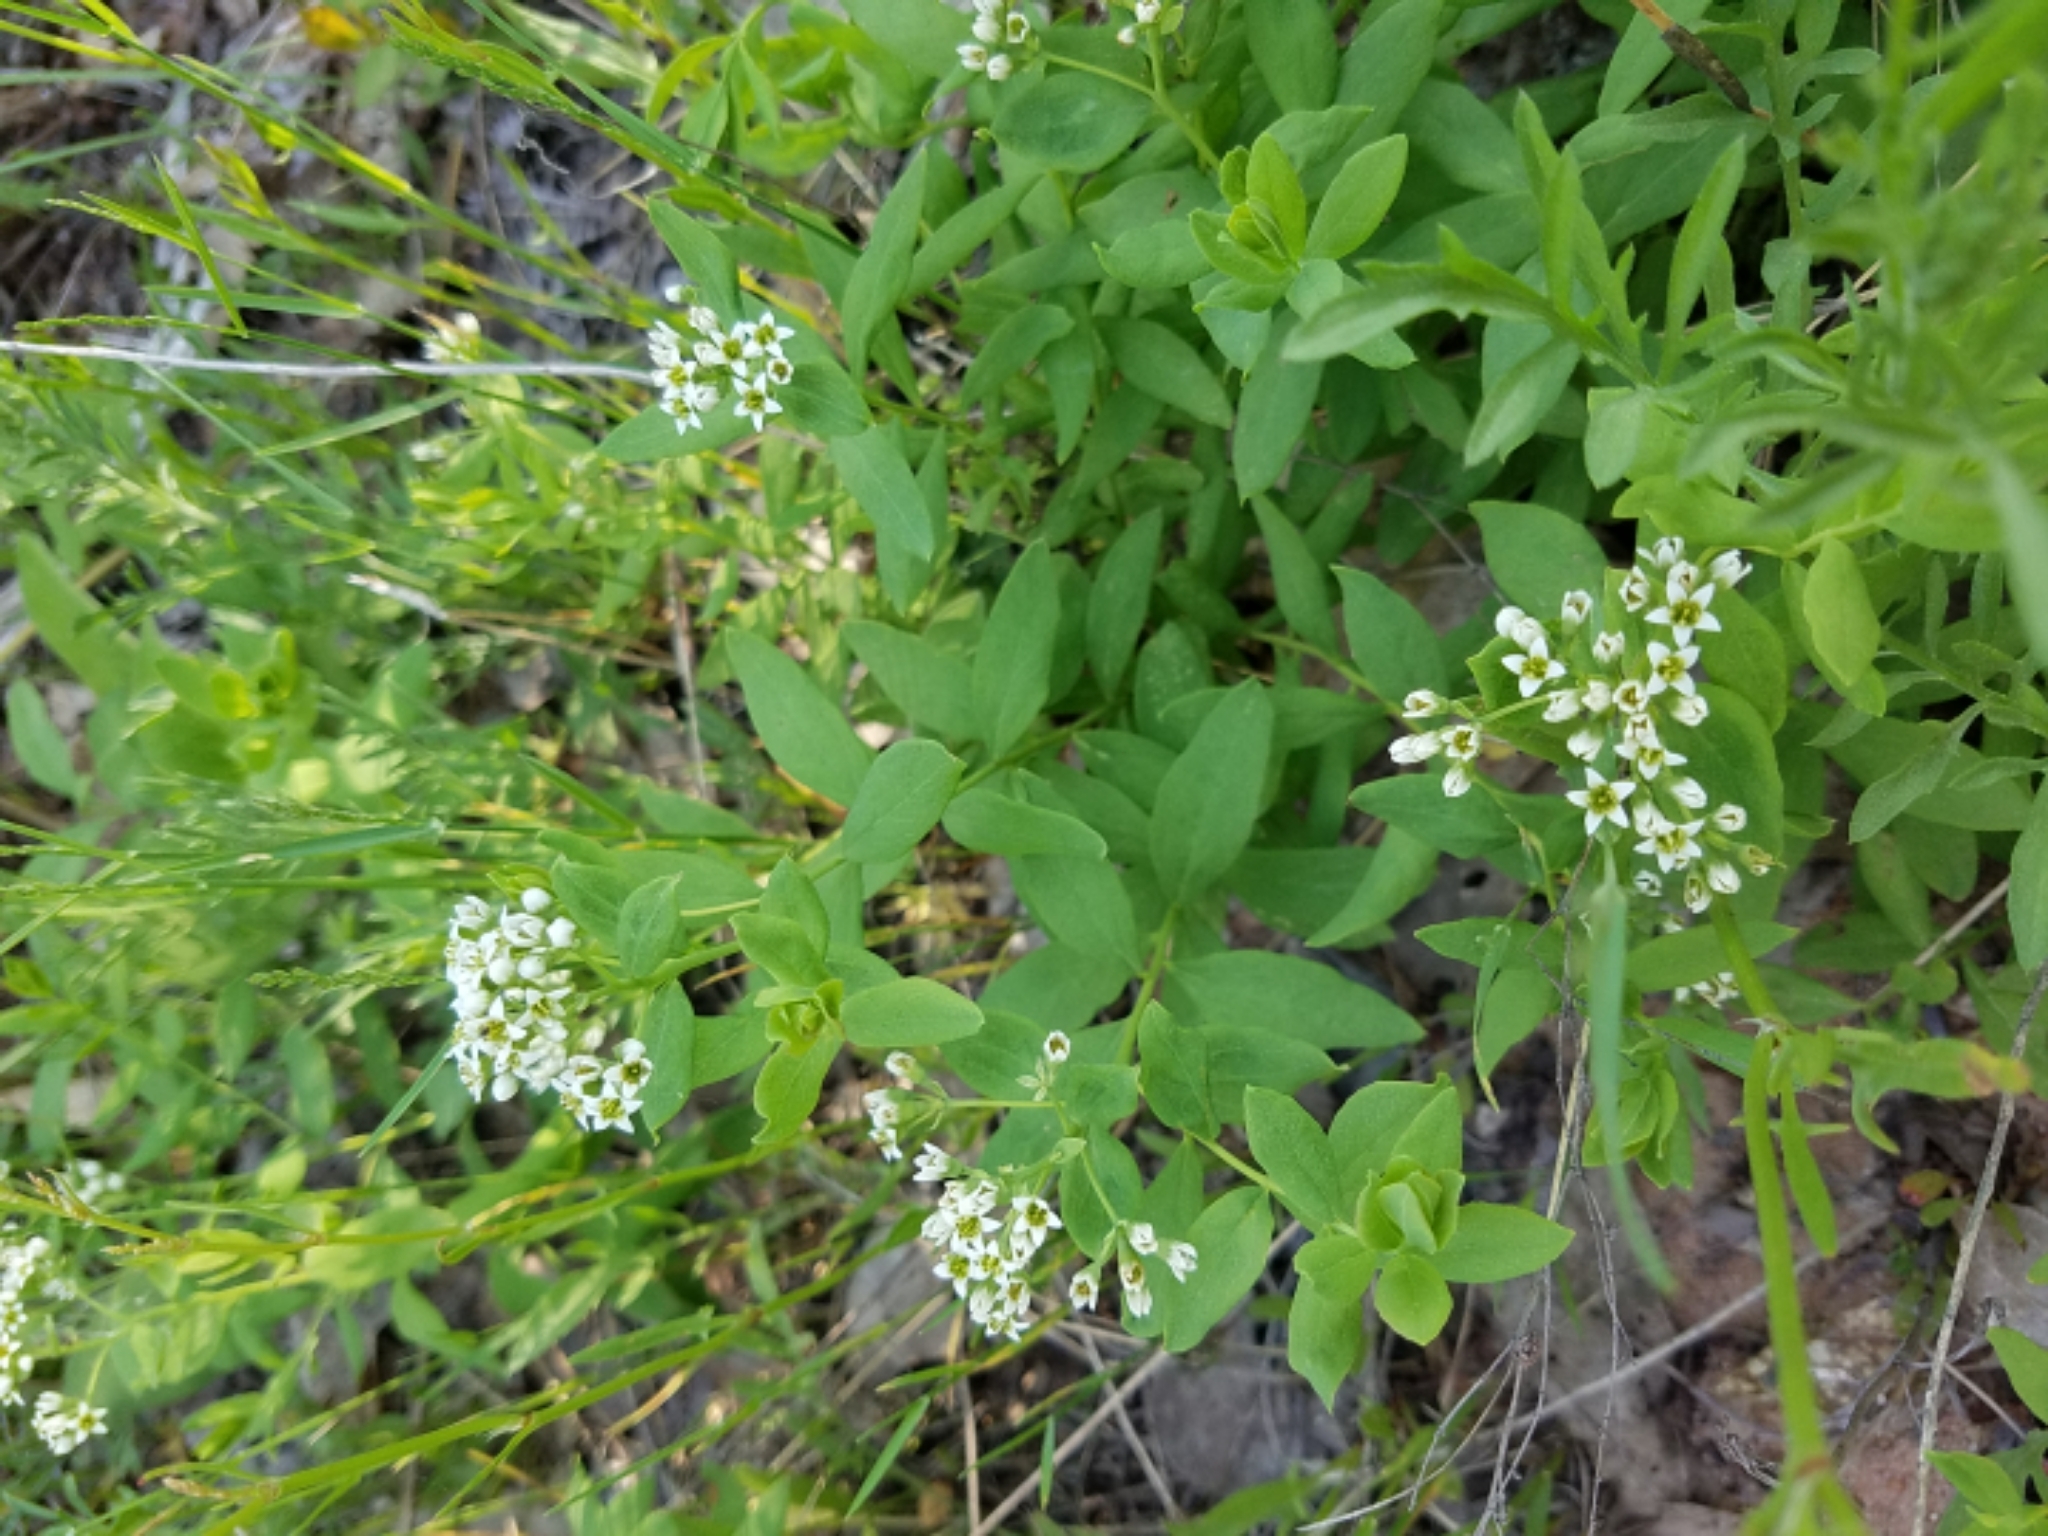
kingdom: Plantae
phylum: Tracheophyta
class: Magnoliopsida
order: Santalales
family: Comandraceae
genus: Comandra
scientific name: Comandra umbellata
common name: Bastard toadflax
